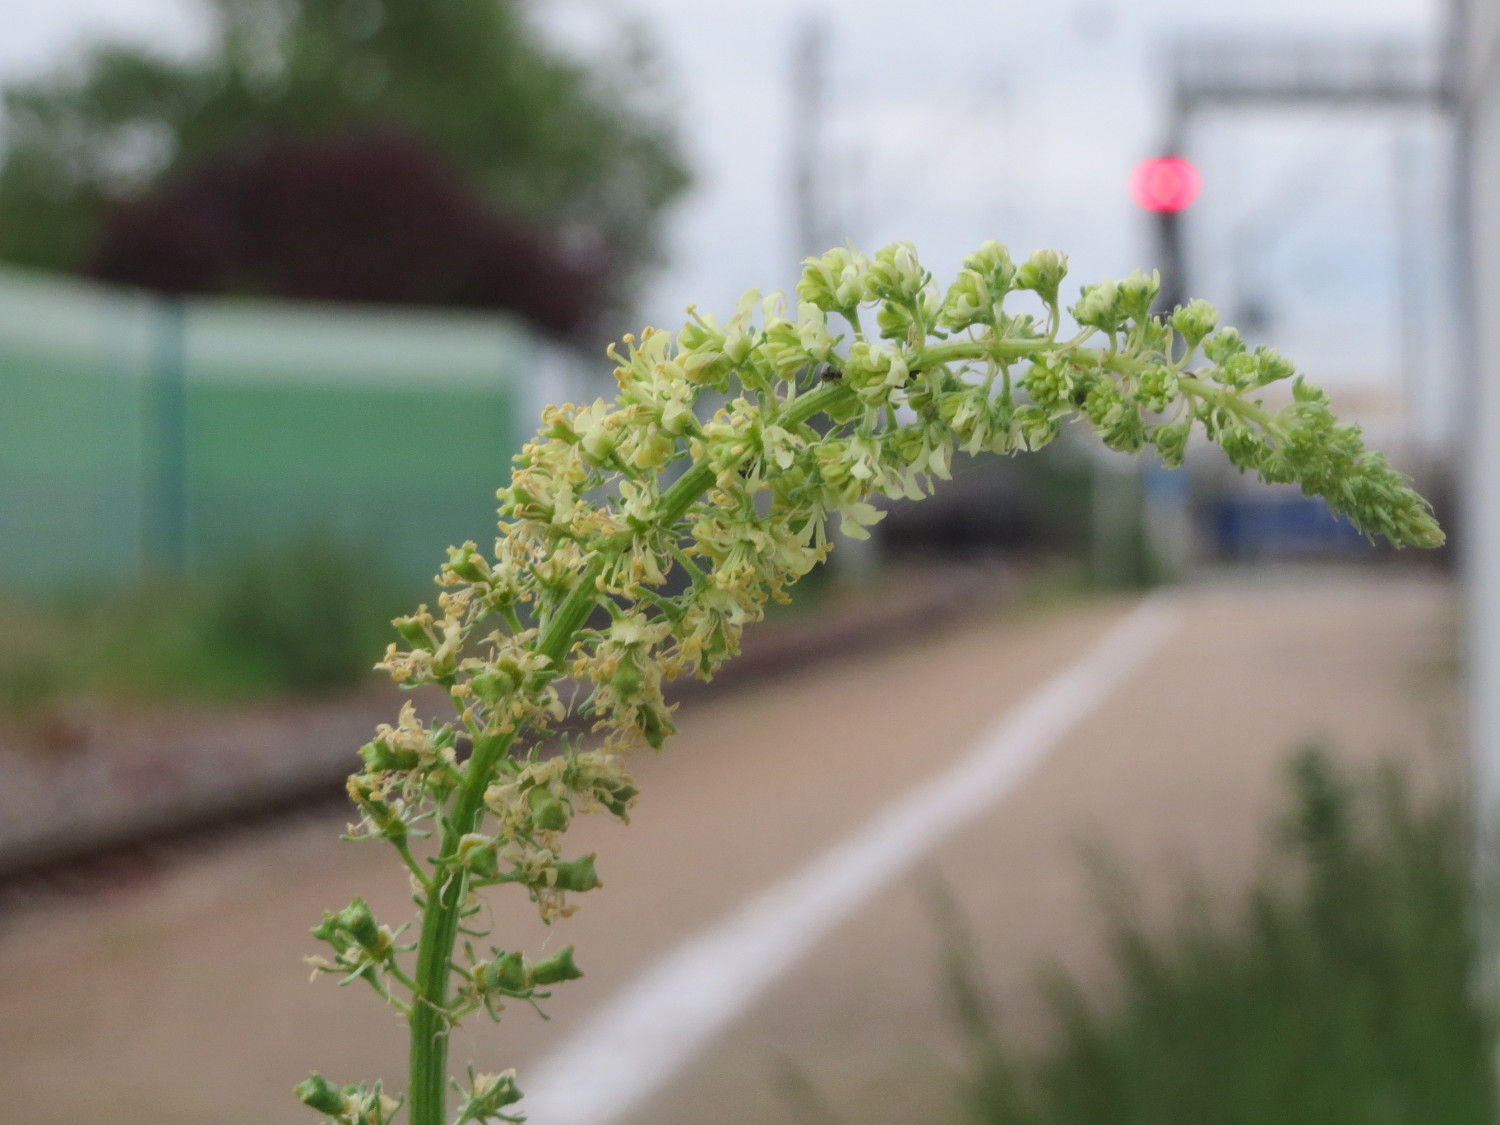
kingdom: Plantae
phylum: Tracheophyta
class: Magnoliopsida
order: Brassicales
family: Resedaceae
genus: Reseda
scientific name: Reseda lutea
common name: Wild mignonette
